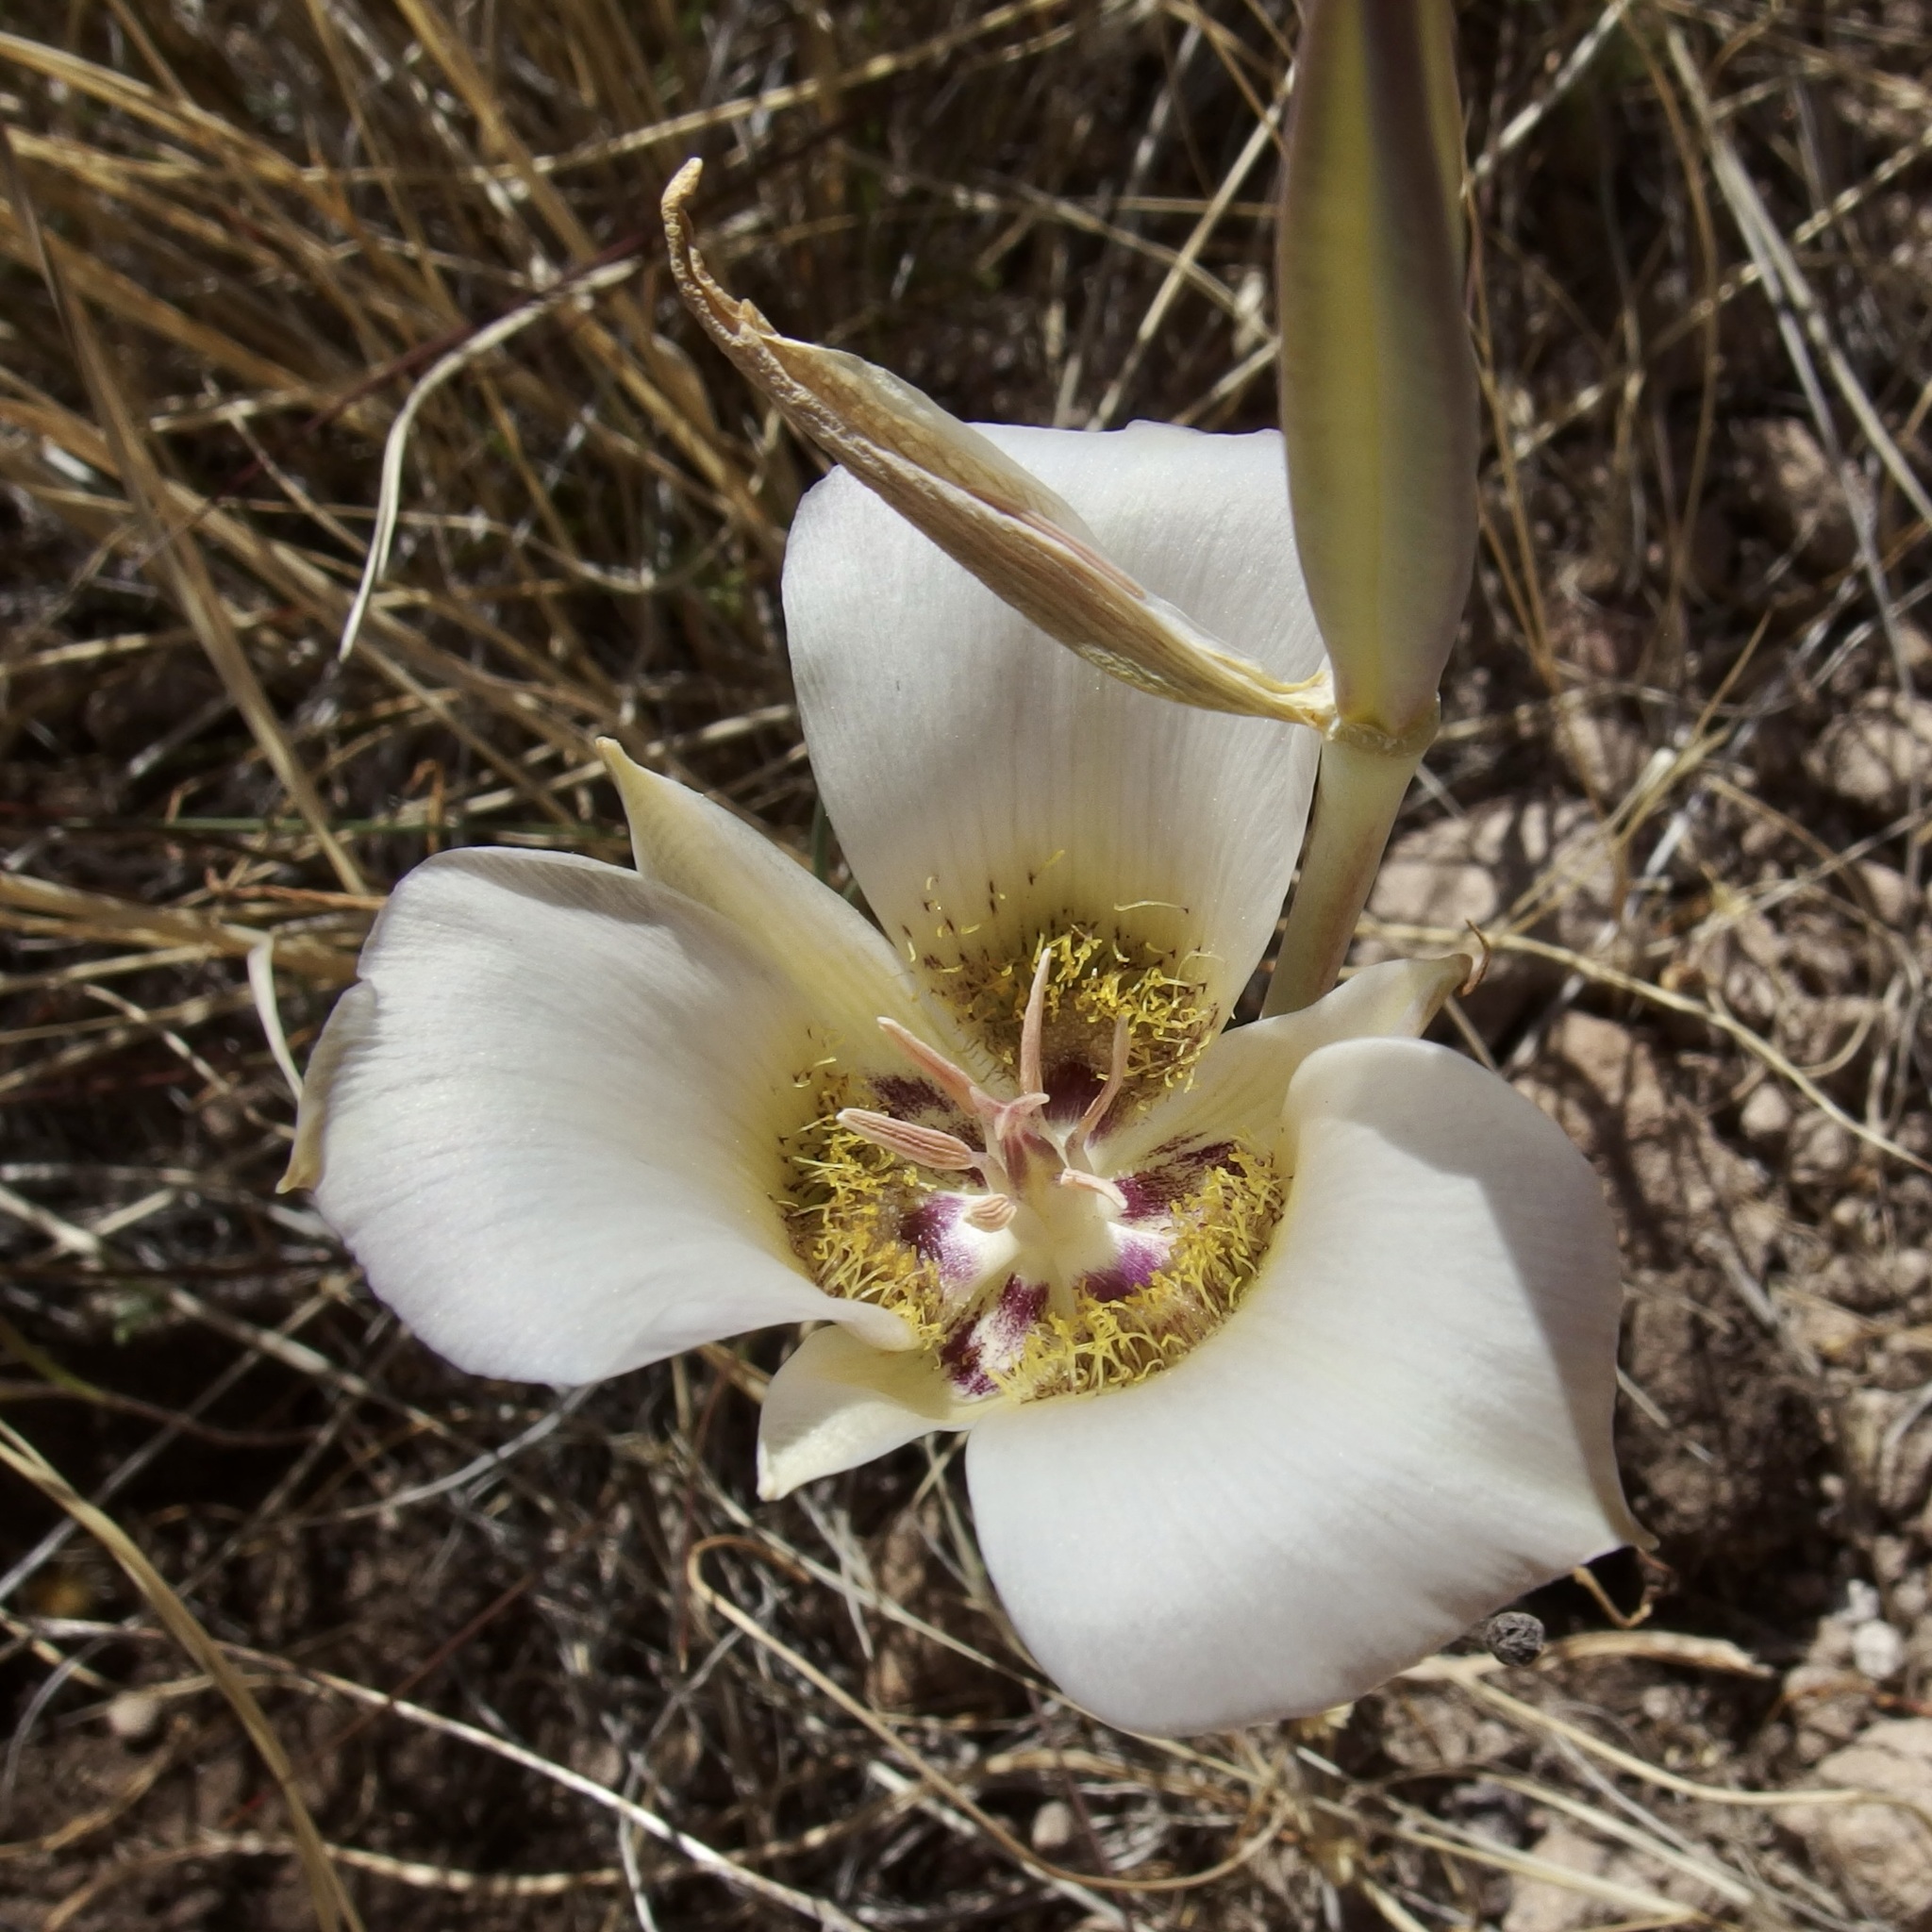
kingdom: Plantae
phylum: Tracheophyta
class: Liliopsida
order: Liliales
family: Liliaceae
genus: Calochortus
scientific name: Calochortus ambiguus
